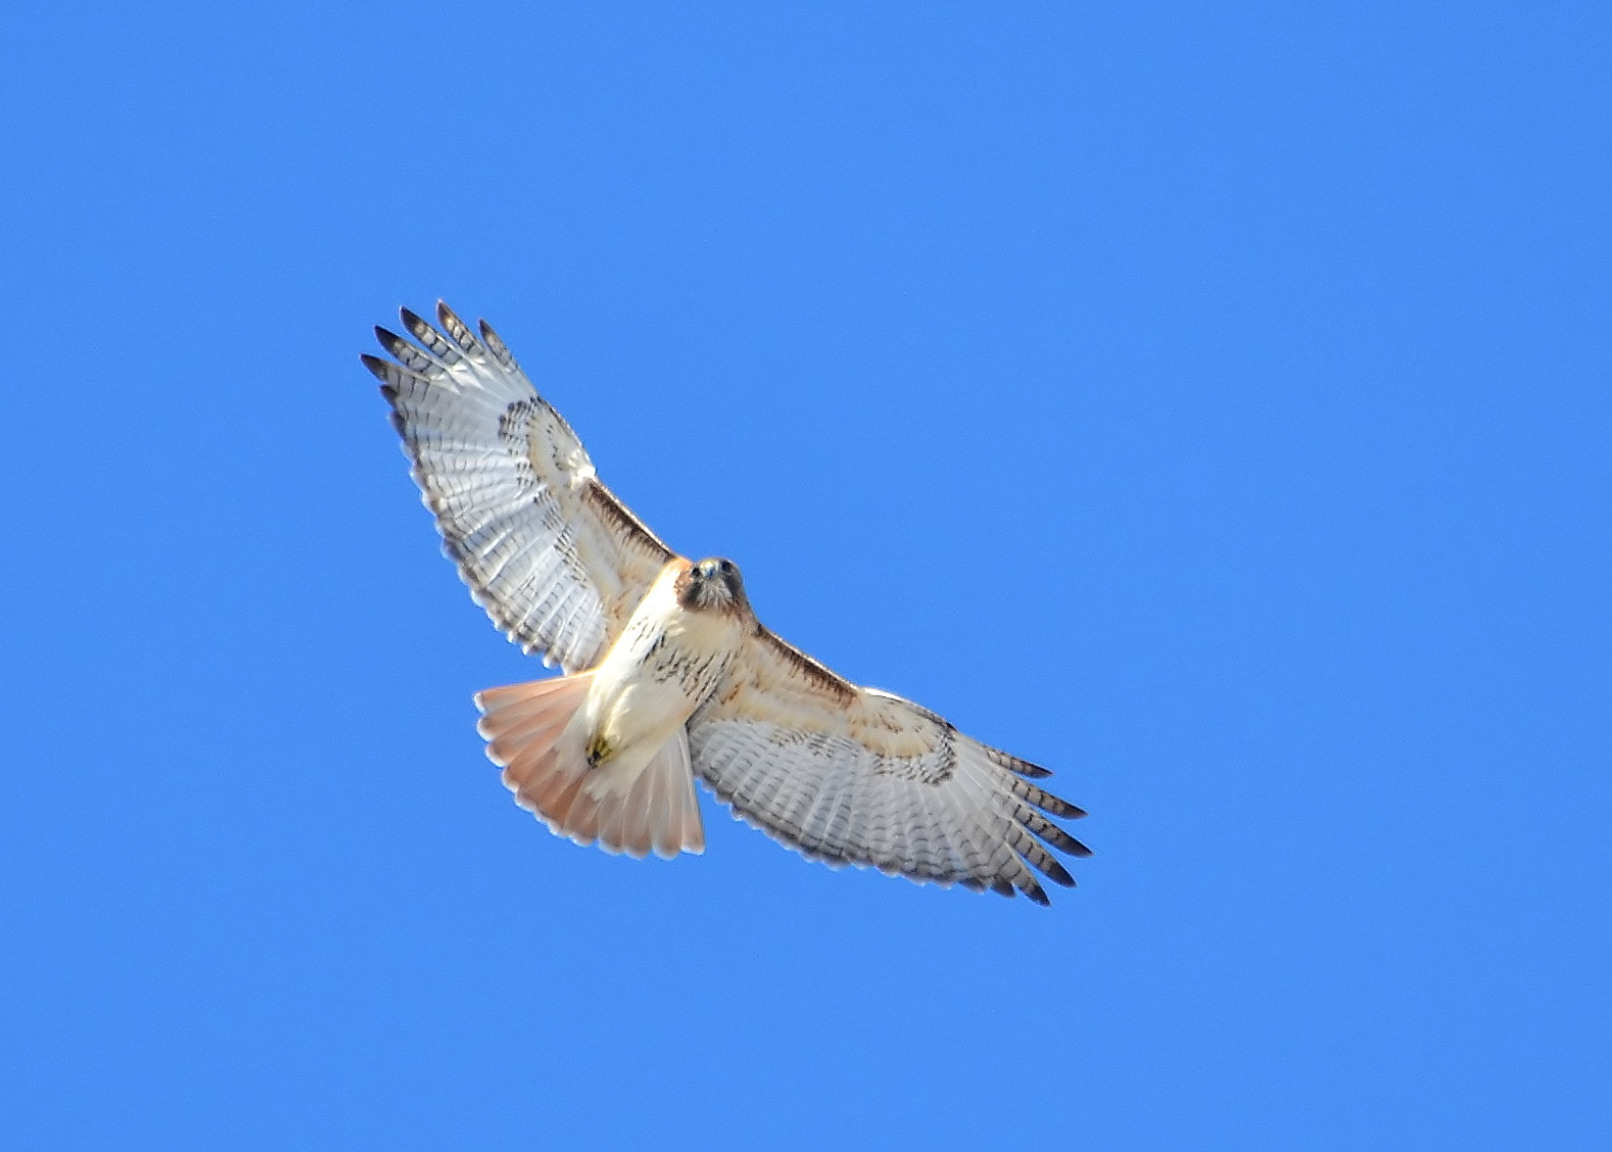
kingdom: Animalia
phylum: Chordata
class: Aves
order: Accipitriformes
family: Accipitridae
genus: Buteo
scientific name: Buteo jamaicensis
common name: Red-tailed hawk
